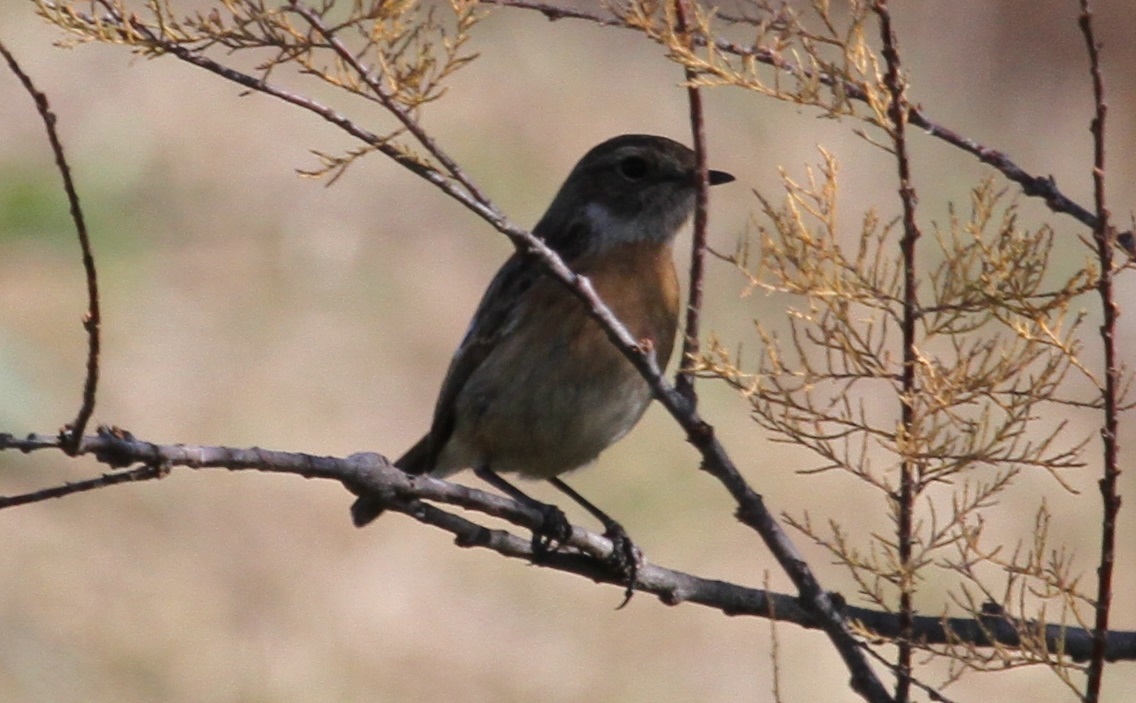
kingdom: Animalia
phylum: Chordata
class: Aves
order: Passeriformes
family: Muscicapidae
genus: Saxicola
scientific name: Saxicola rubicola
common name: European stonechat
